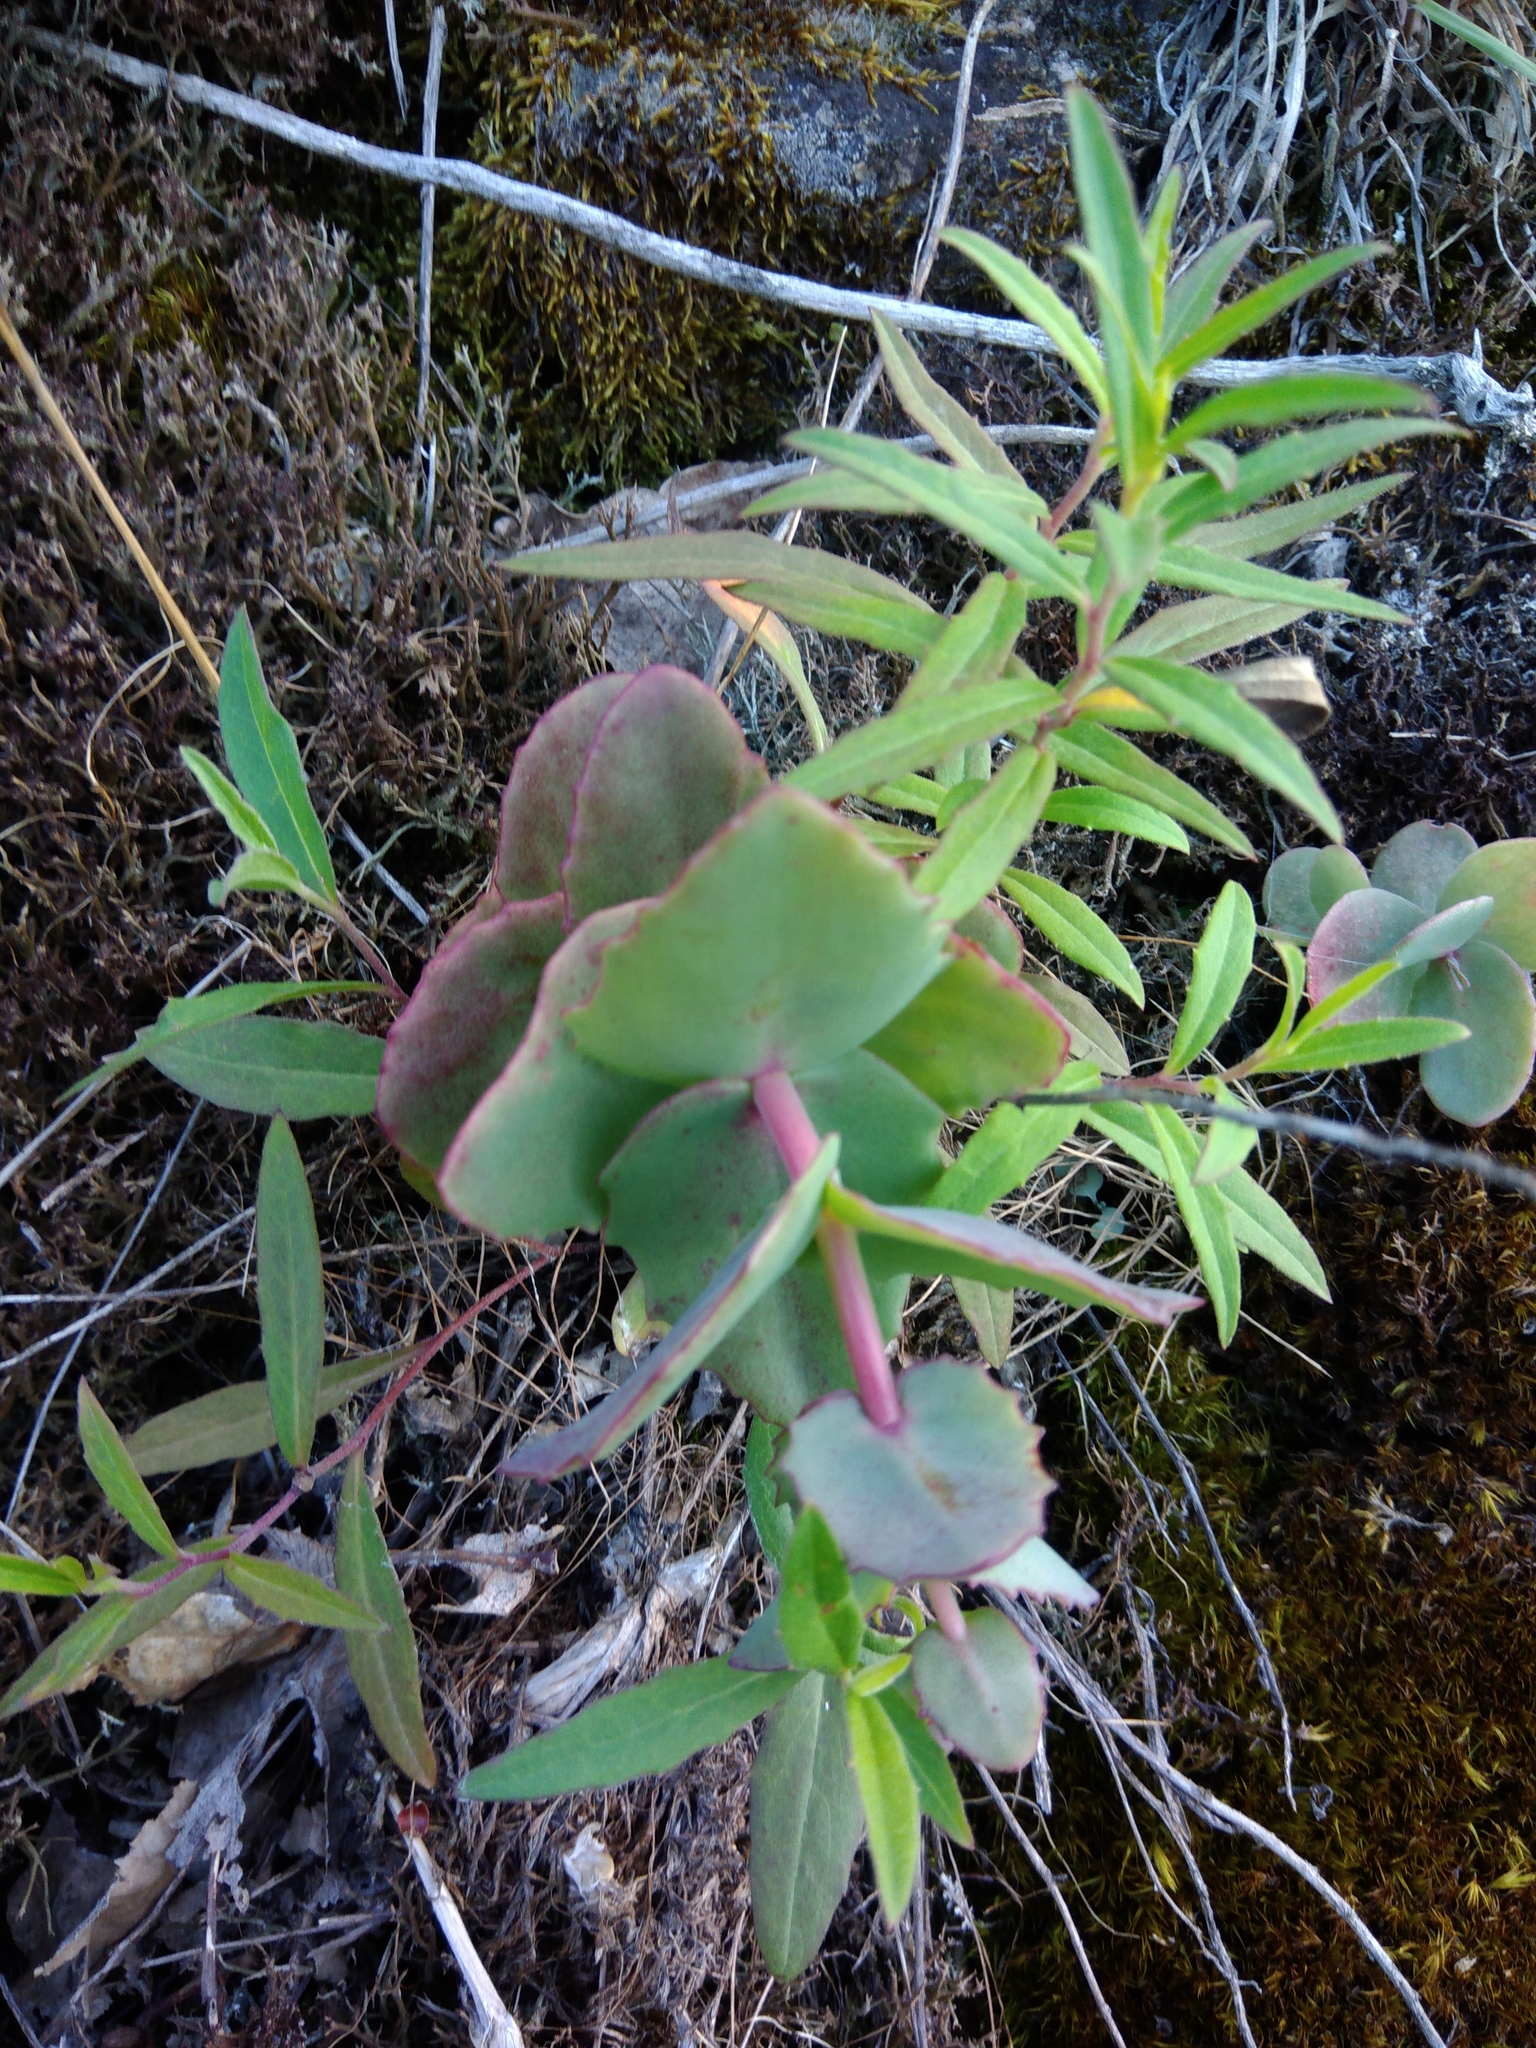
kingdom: Plantae
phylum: Tracheophyta
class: Magnoliopsida
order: Saxifragales
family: Crassulaceae
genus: Hylotelephium
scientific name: Hylotelephium maximum
